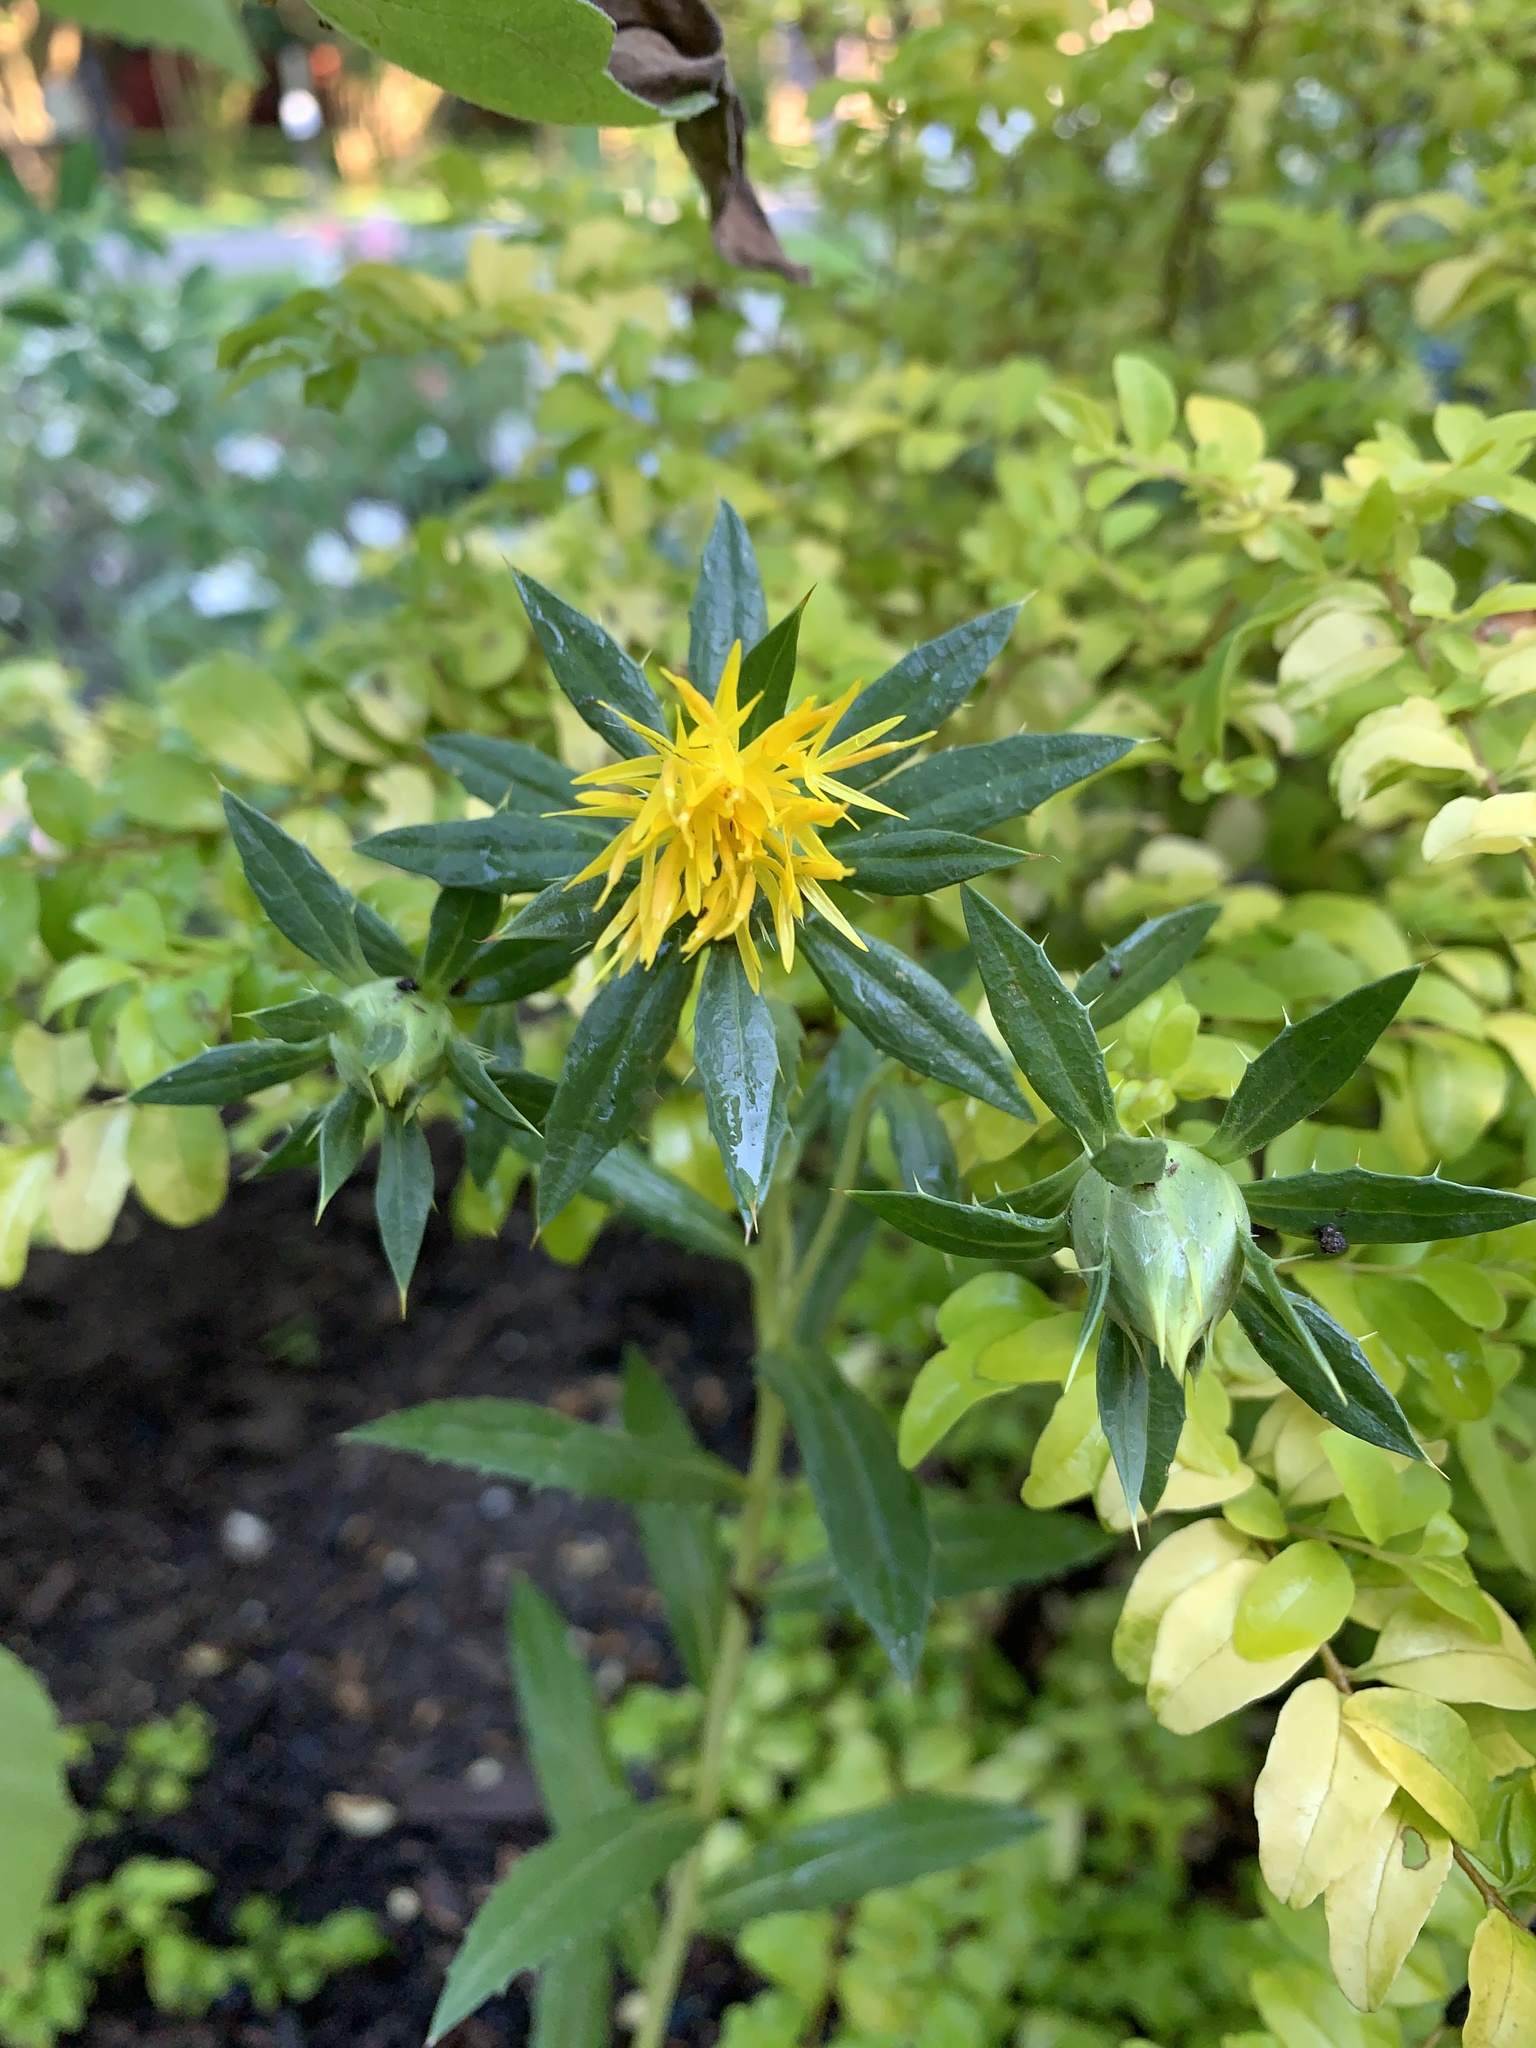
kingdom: Plantae
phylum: Tracheophyta
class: Magnoliopsida
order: Asterales
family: Asteraceae
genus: Carthamus
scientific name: Carthamus tinctorius
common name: Safflower
